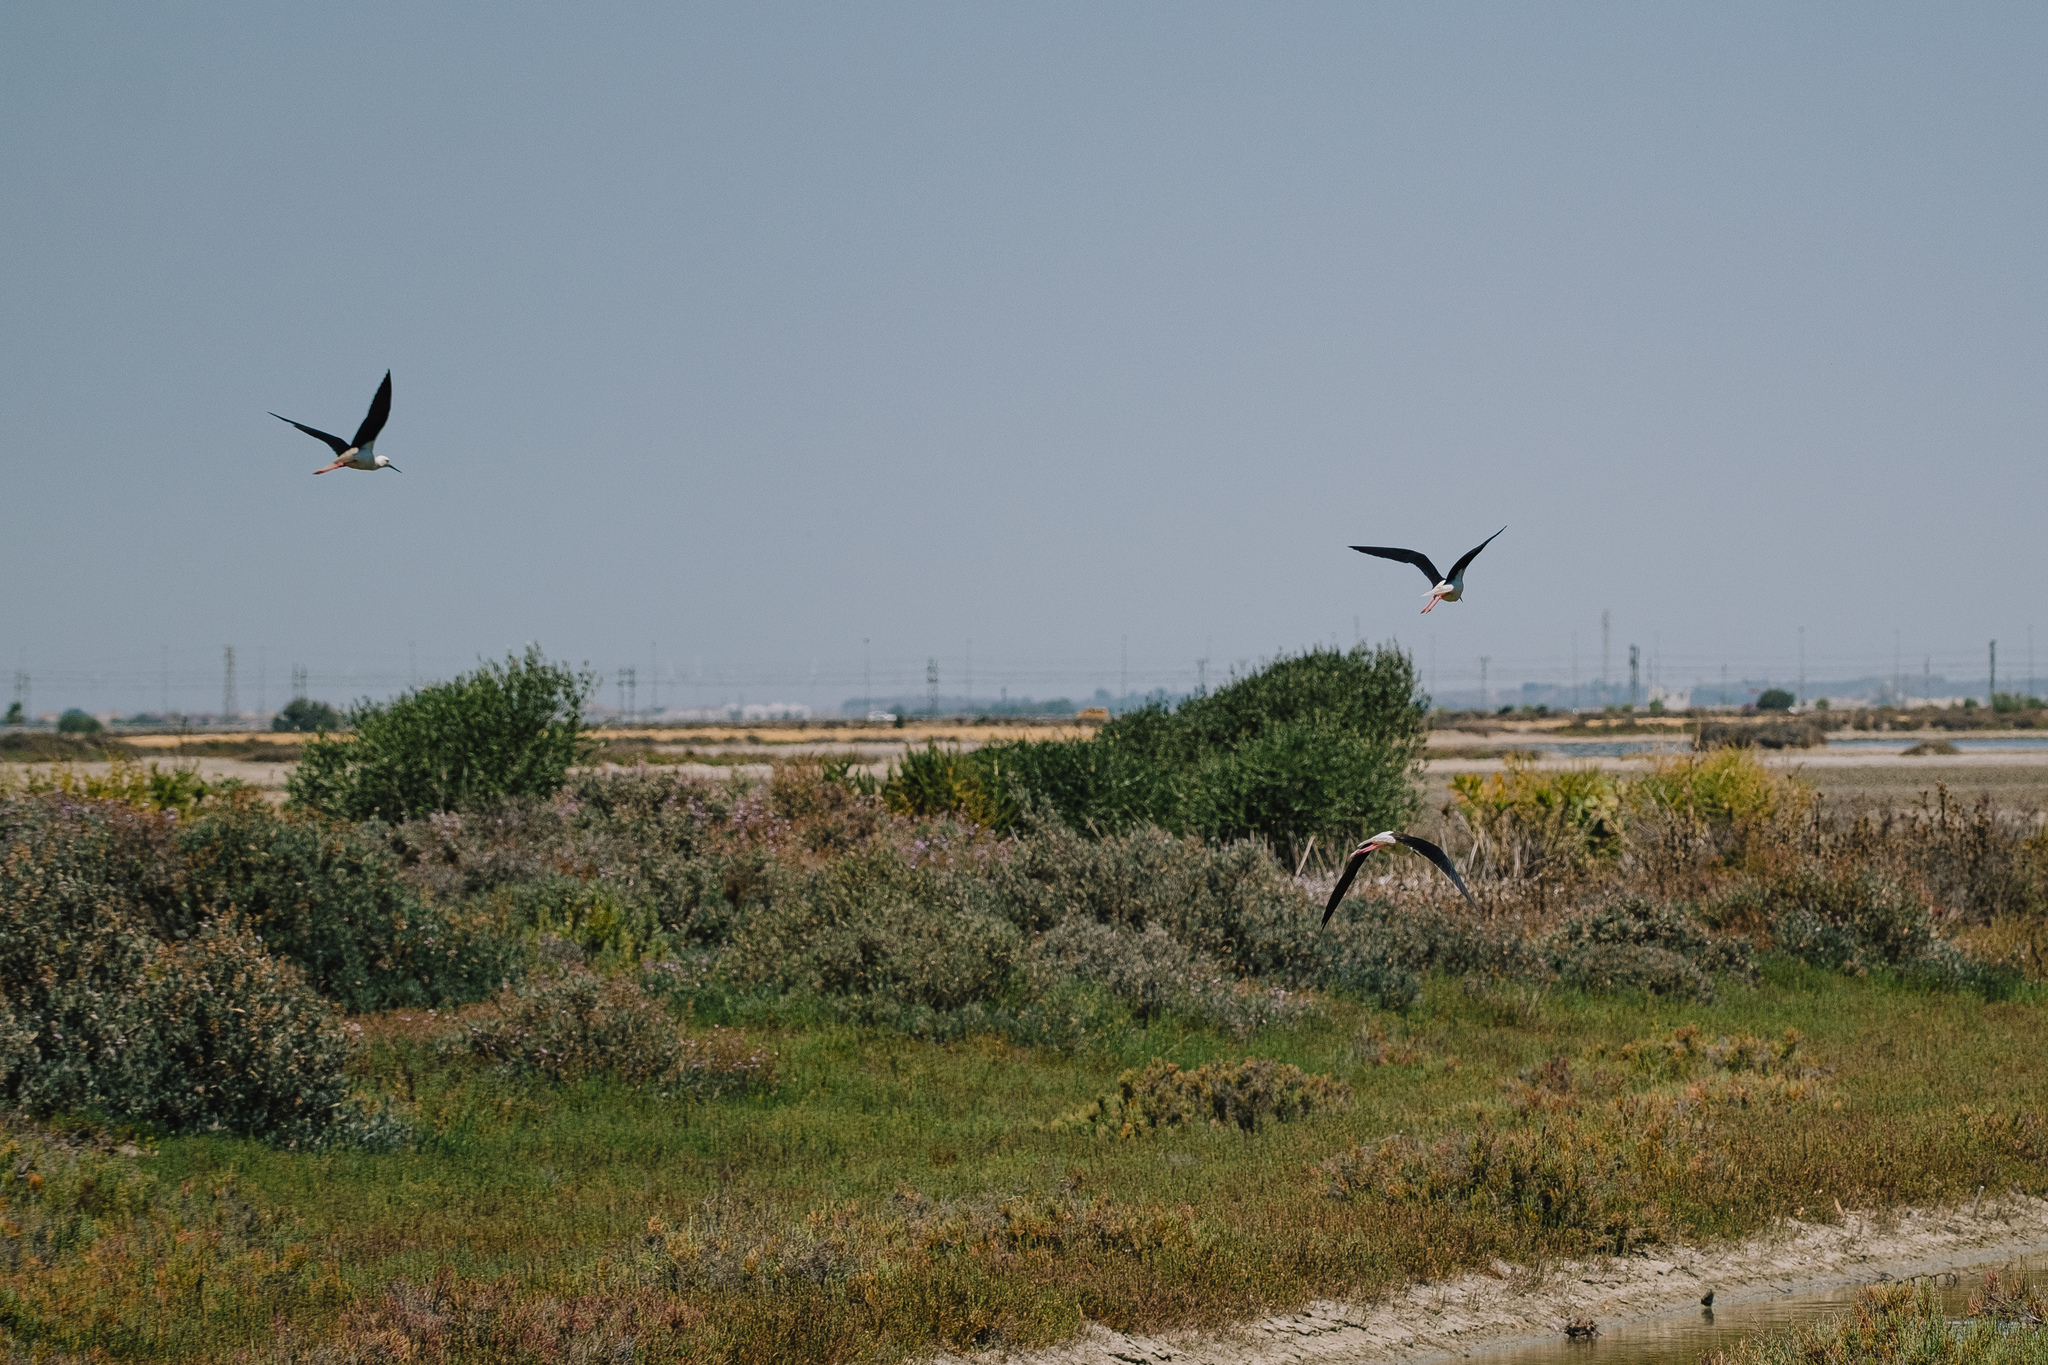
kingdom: Animalia
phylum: Chordata
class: Aves
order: Charadriiformes
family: Recurvirostridae
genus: Himantopus
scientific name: Himantopus himantopus
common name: Black-winged stilt
